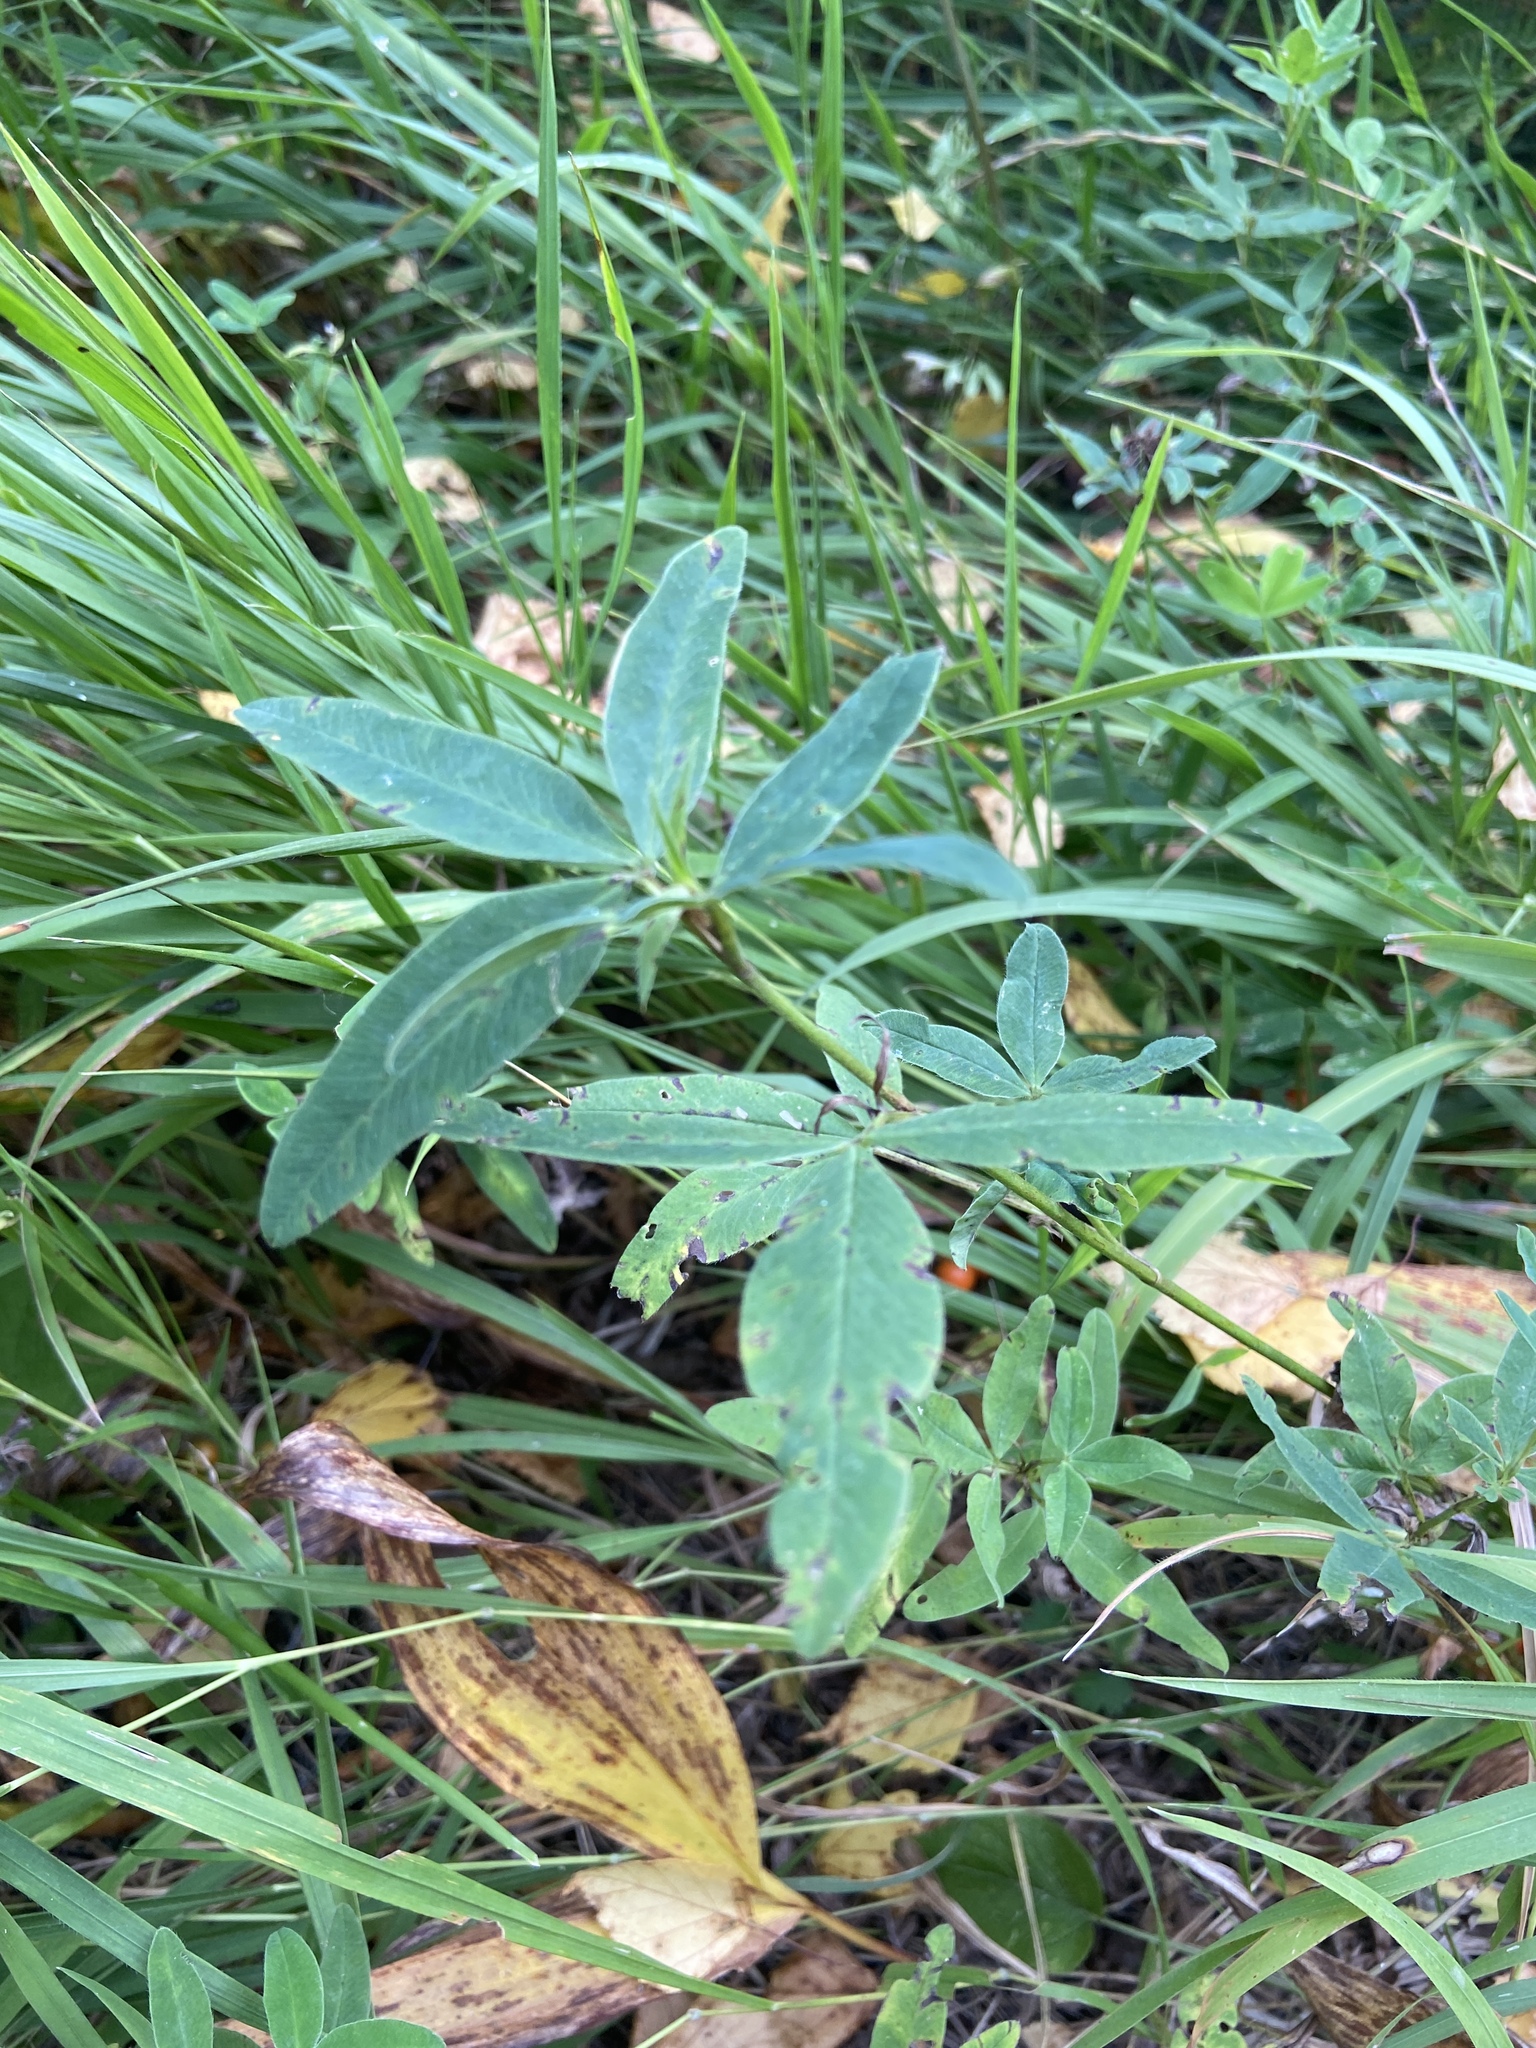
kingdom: Plantae
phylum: Tracheophyta
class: Magnoliopsida
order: Fabales
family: Fabaceae
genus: Trifolium
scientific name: Trifolium medium
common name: Zigzag clover
